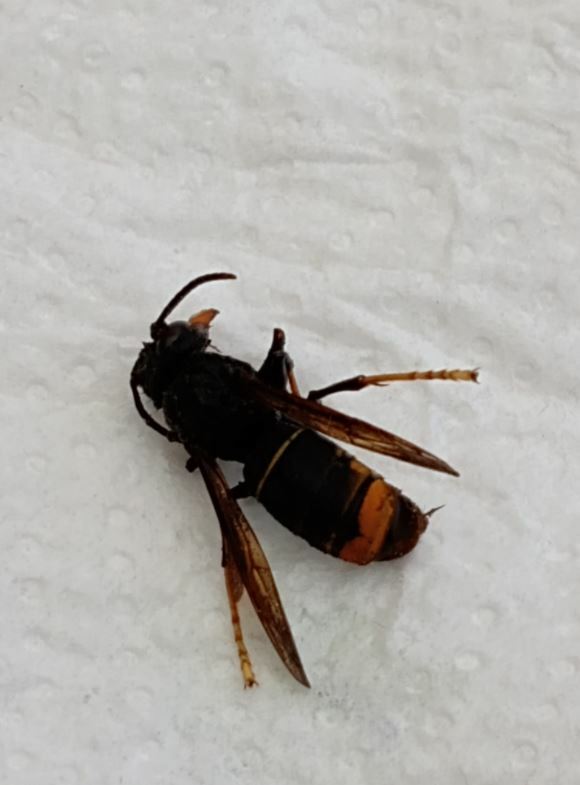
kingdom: Animalia
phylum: Arthropoda
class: Insecta
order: Hymenoptera
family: Vespidae
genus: Vespa
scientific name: Vespa velutina
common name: Asian hornet
